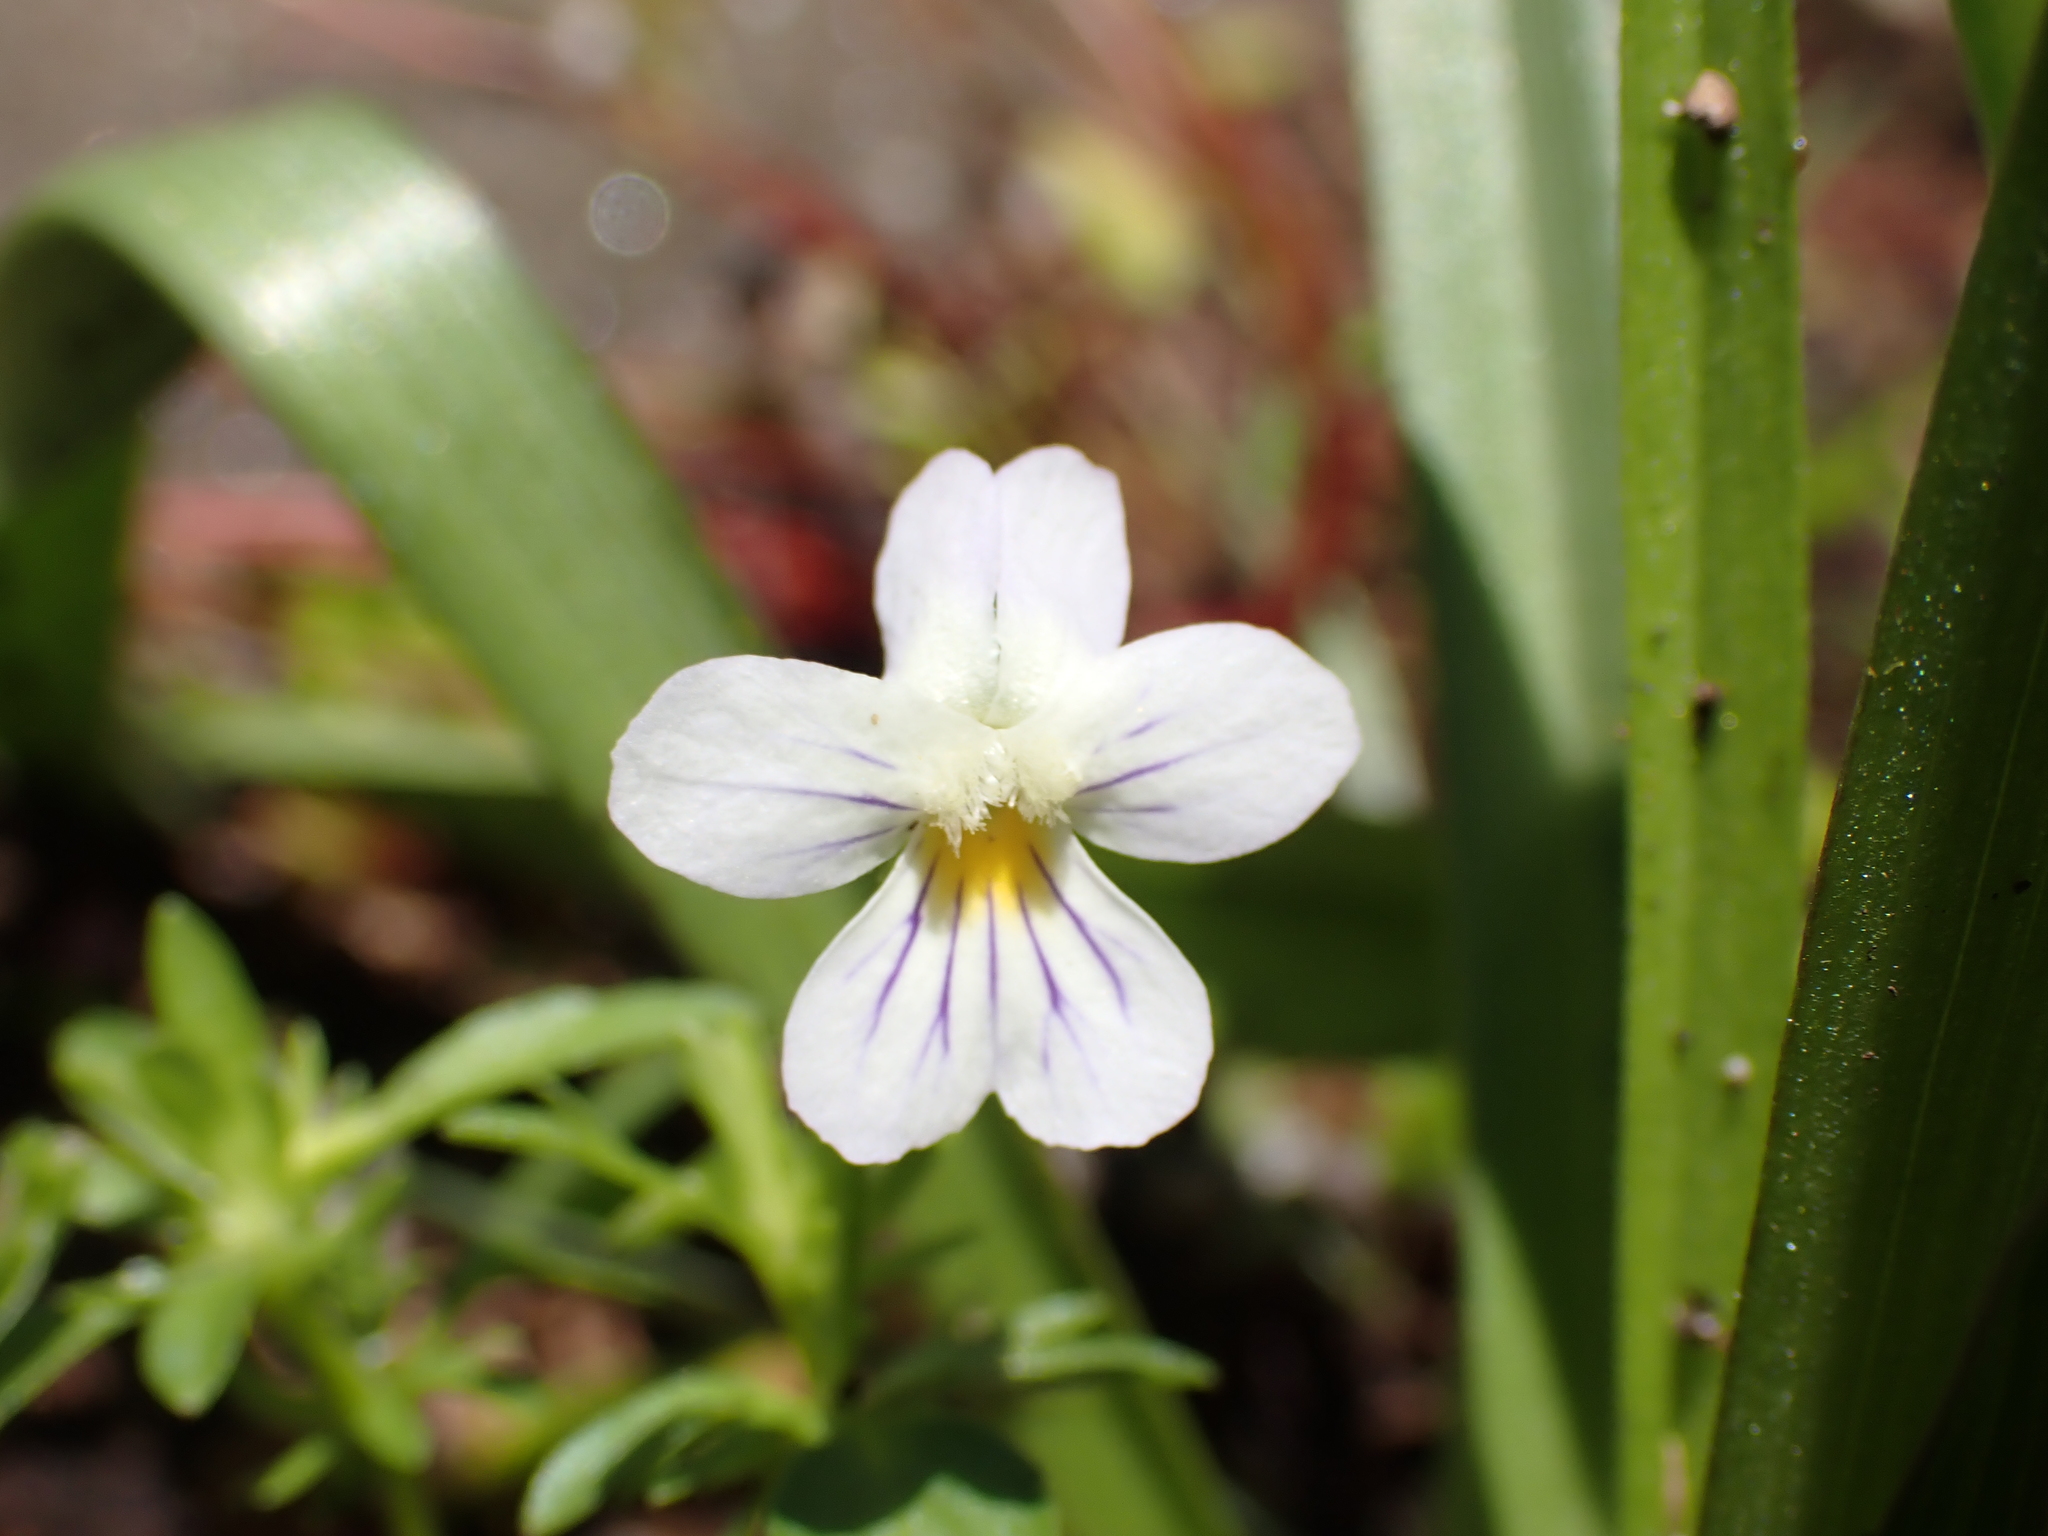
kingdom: Plantae
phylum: Tracheophyta
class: Magnoliopsida
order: Malpighiales
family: Violaceae
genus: Viola
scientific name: Viola rafinesquei
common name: American field pansy
